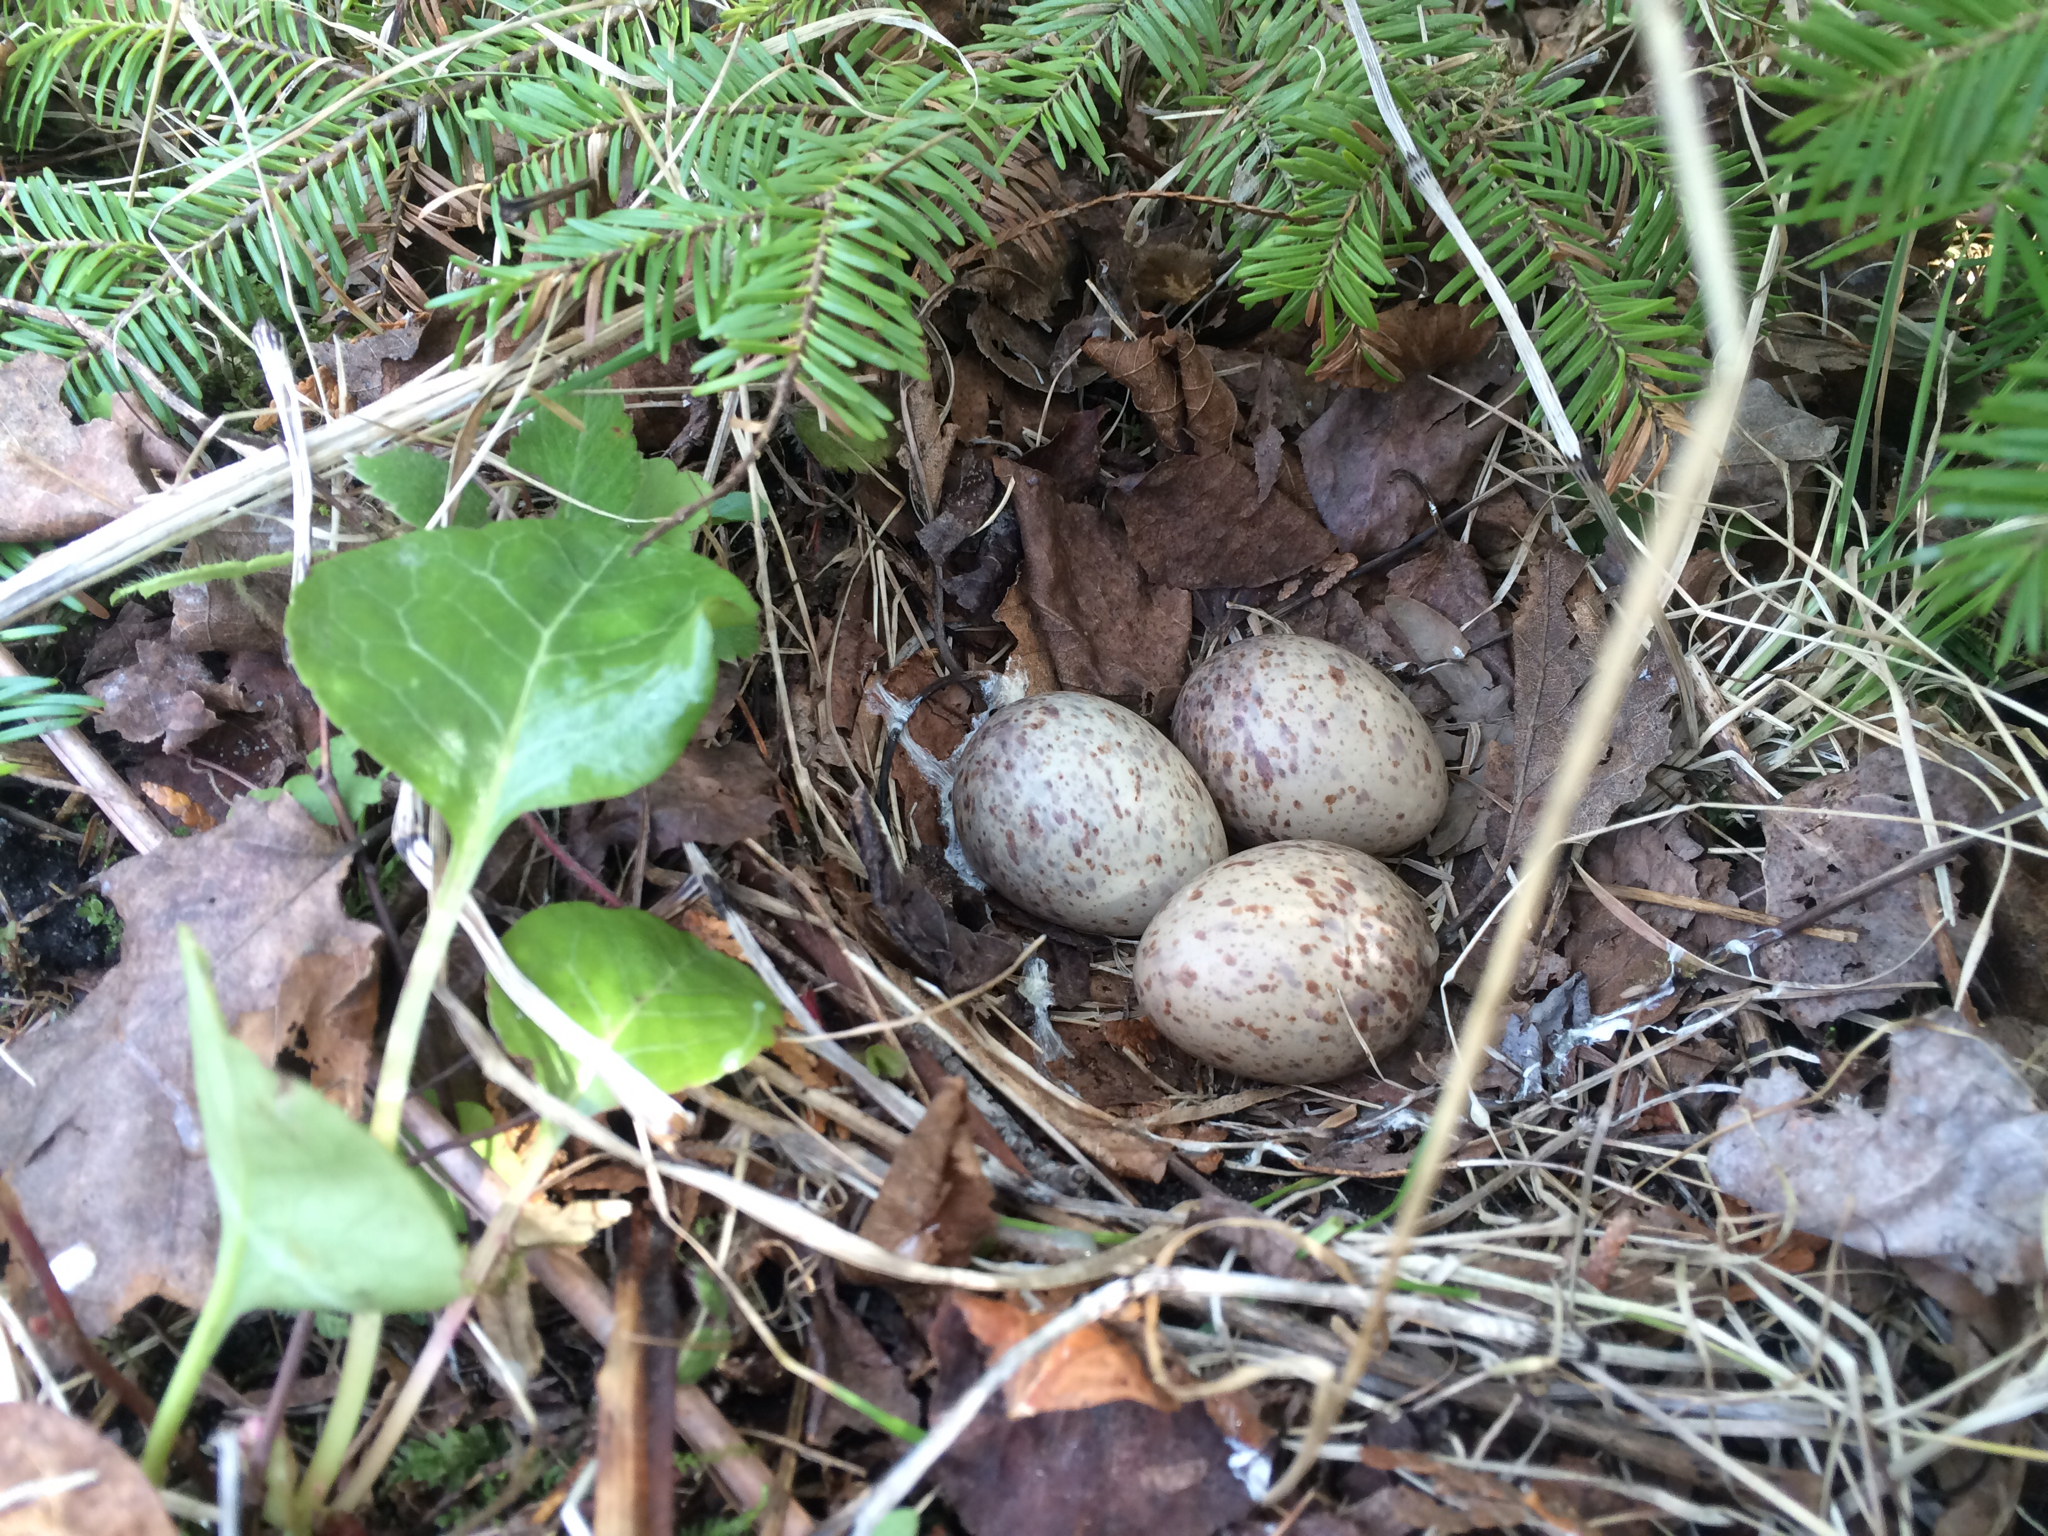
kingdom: Animalia
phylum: Chordata
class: Aves
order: Charadriiformes
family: Scolopacidae
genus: Scolopax
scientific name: Scolopax minor
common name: American woodcock
